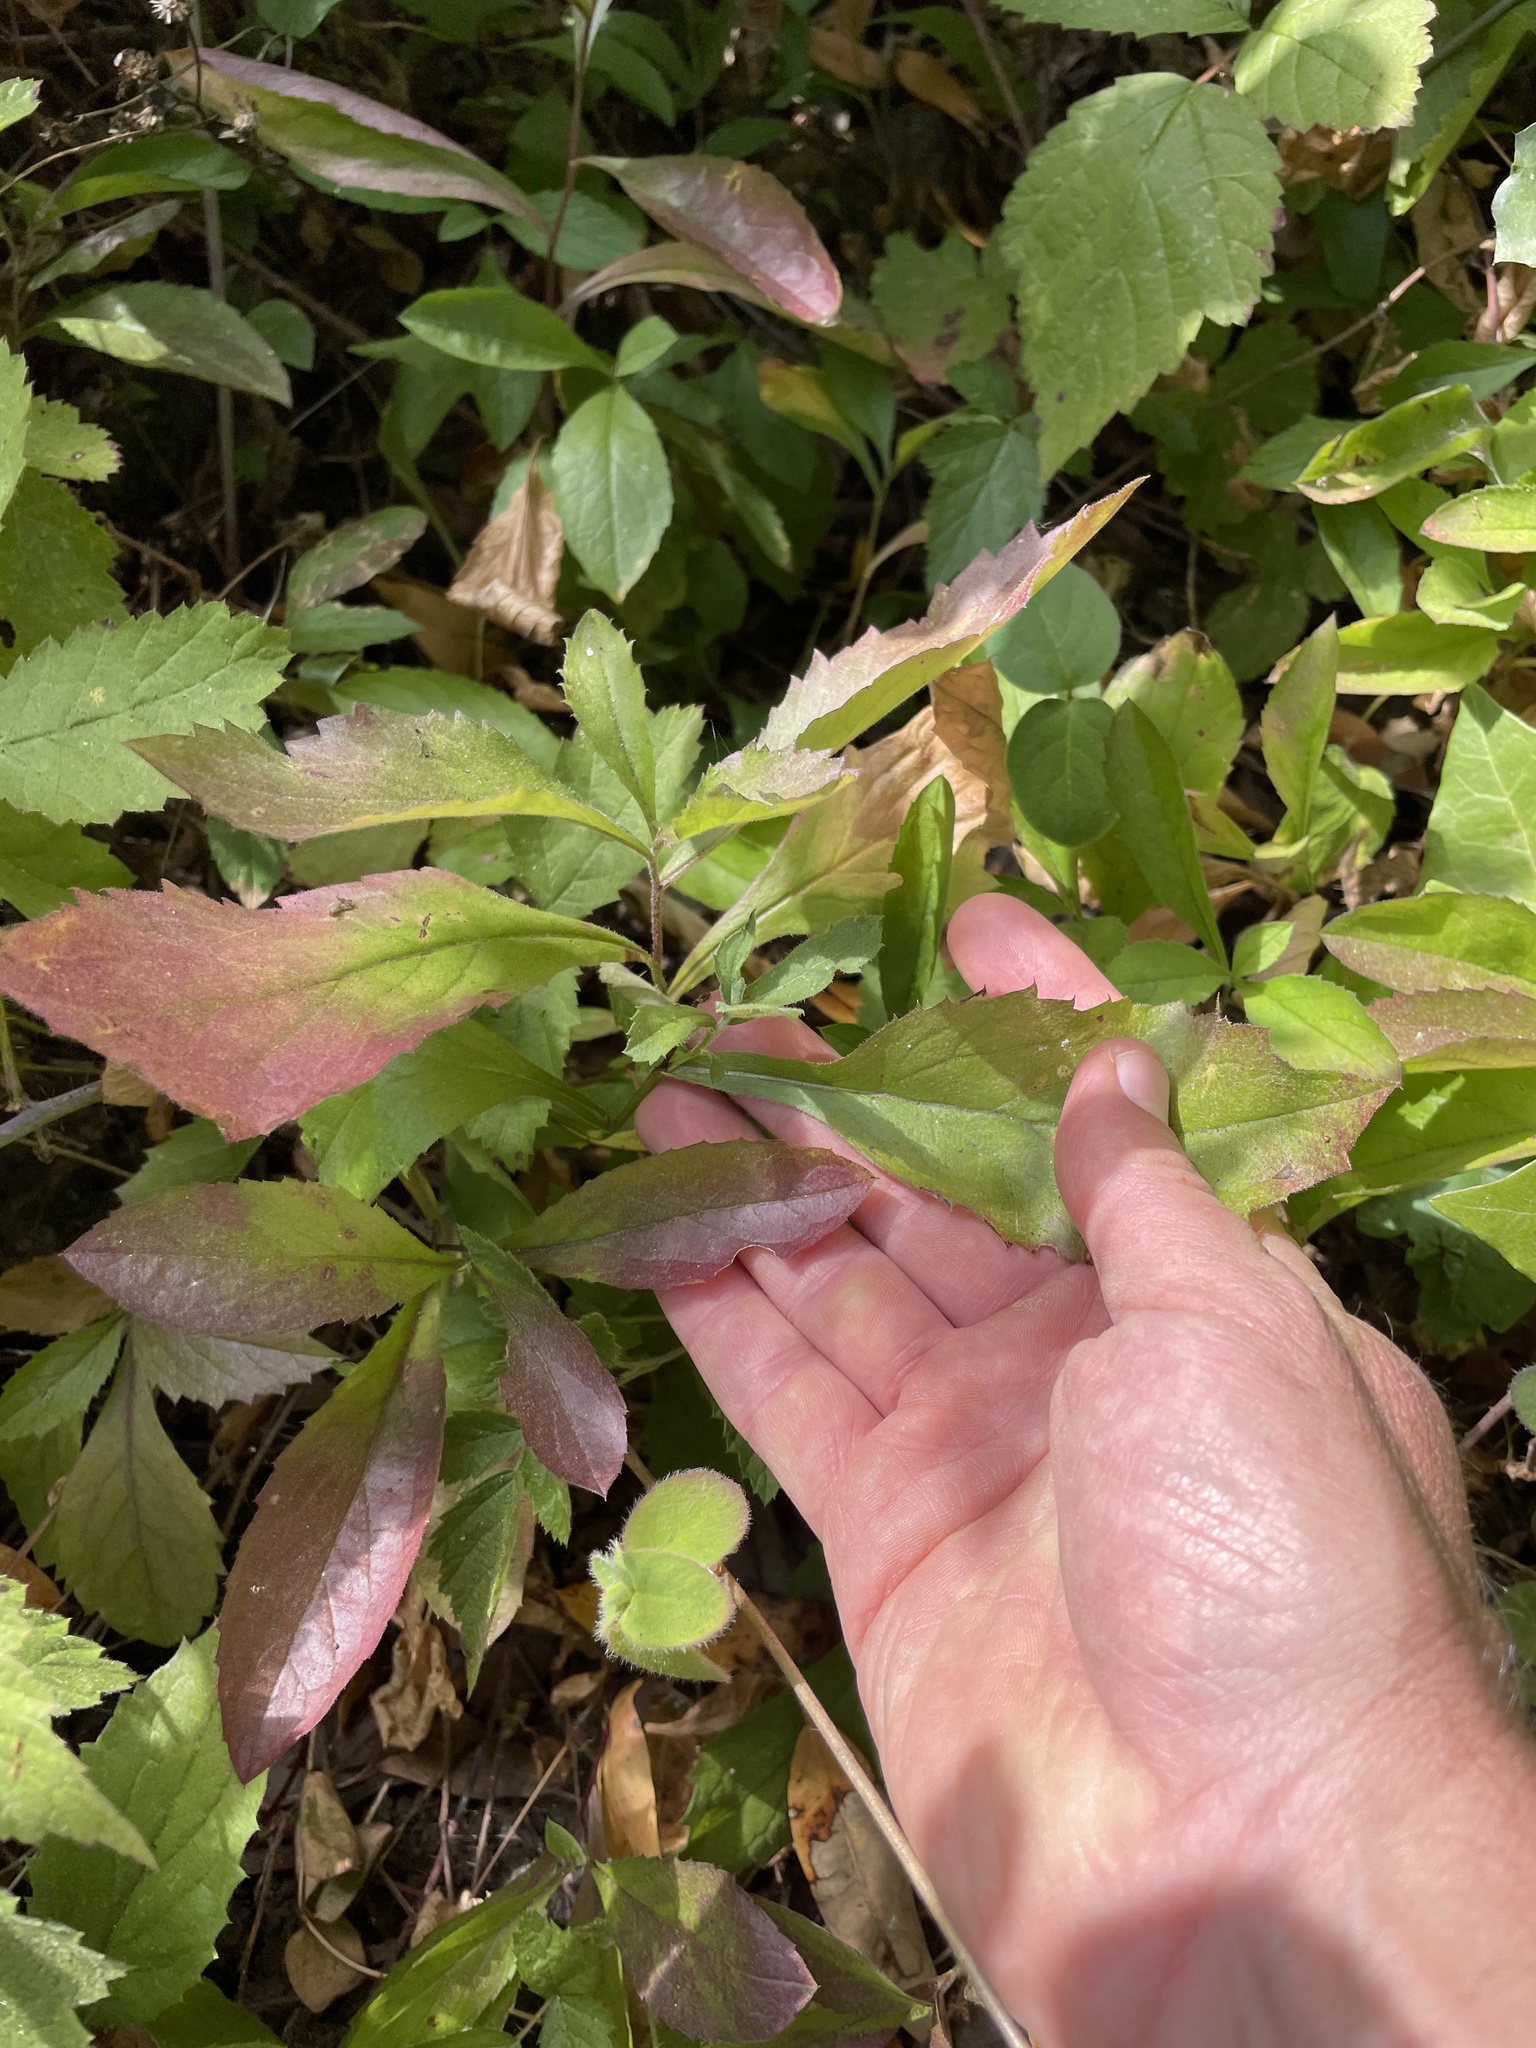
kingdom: Plantae
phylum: Tracheophyta
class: Magnoliopsida
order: Asterales
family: Asteraceae
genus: Eurybia
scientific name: Eurybia radulina
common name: Rough-leaved aster
